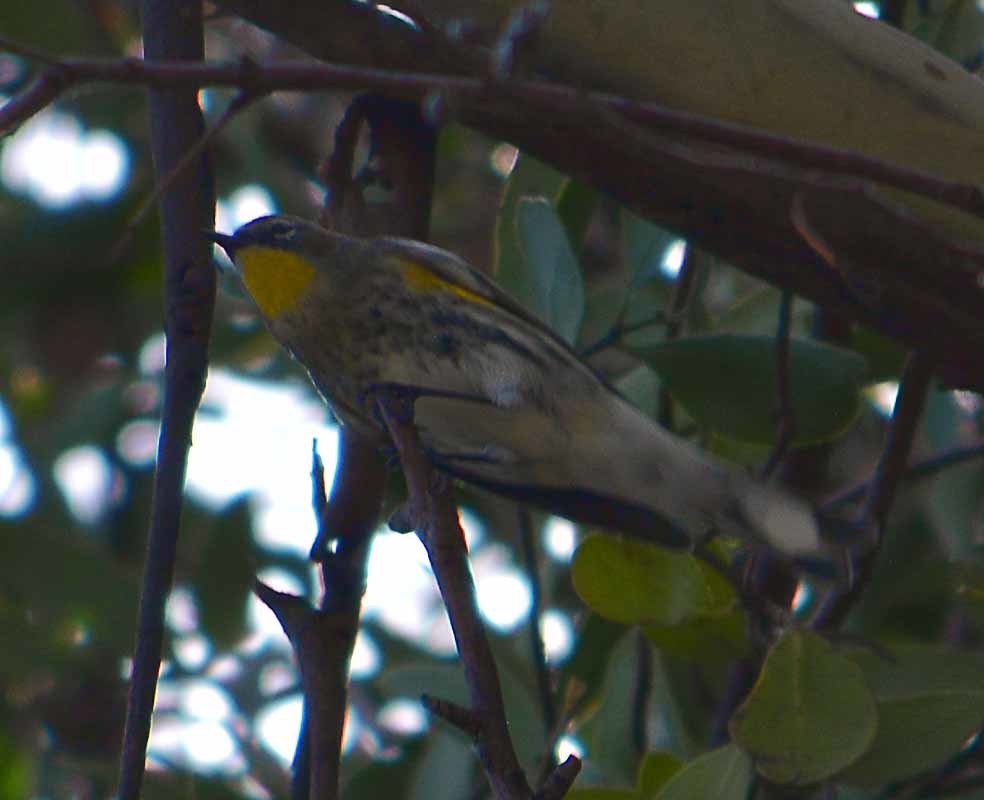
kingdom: Animalia
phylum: Chordata
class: Aves
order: Passeriformes
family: Parulidae
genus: Setophaga
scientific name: Setophaga coronata
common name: Myrtle warbler
